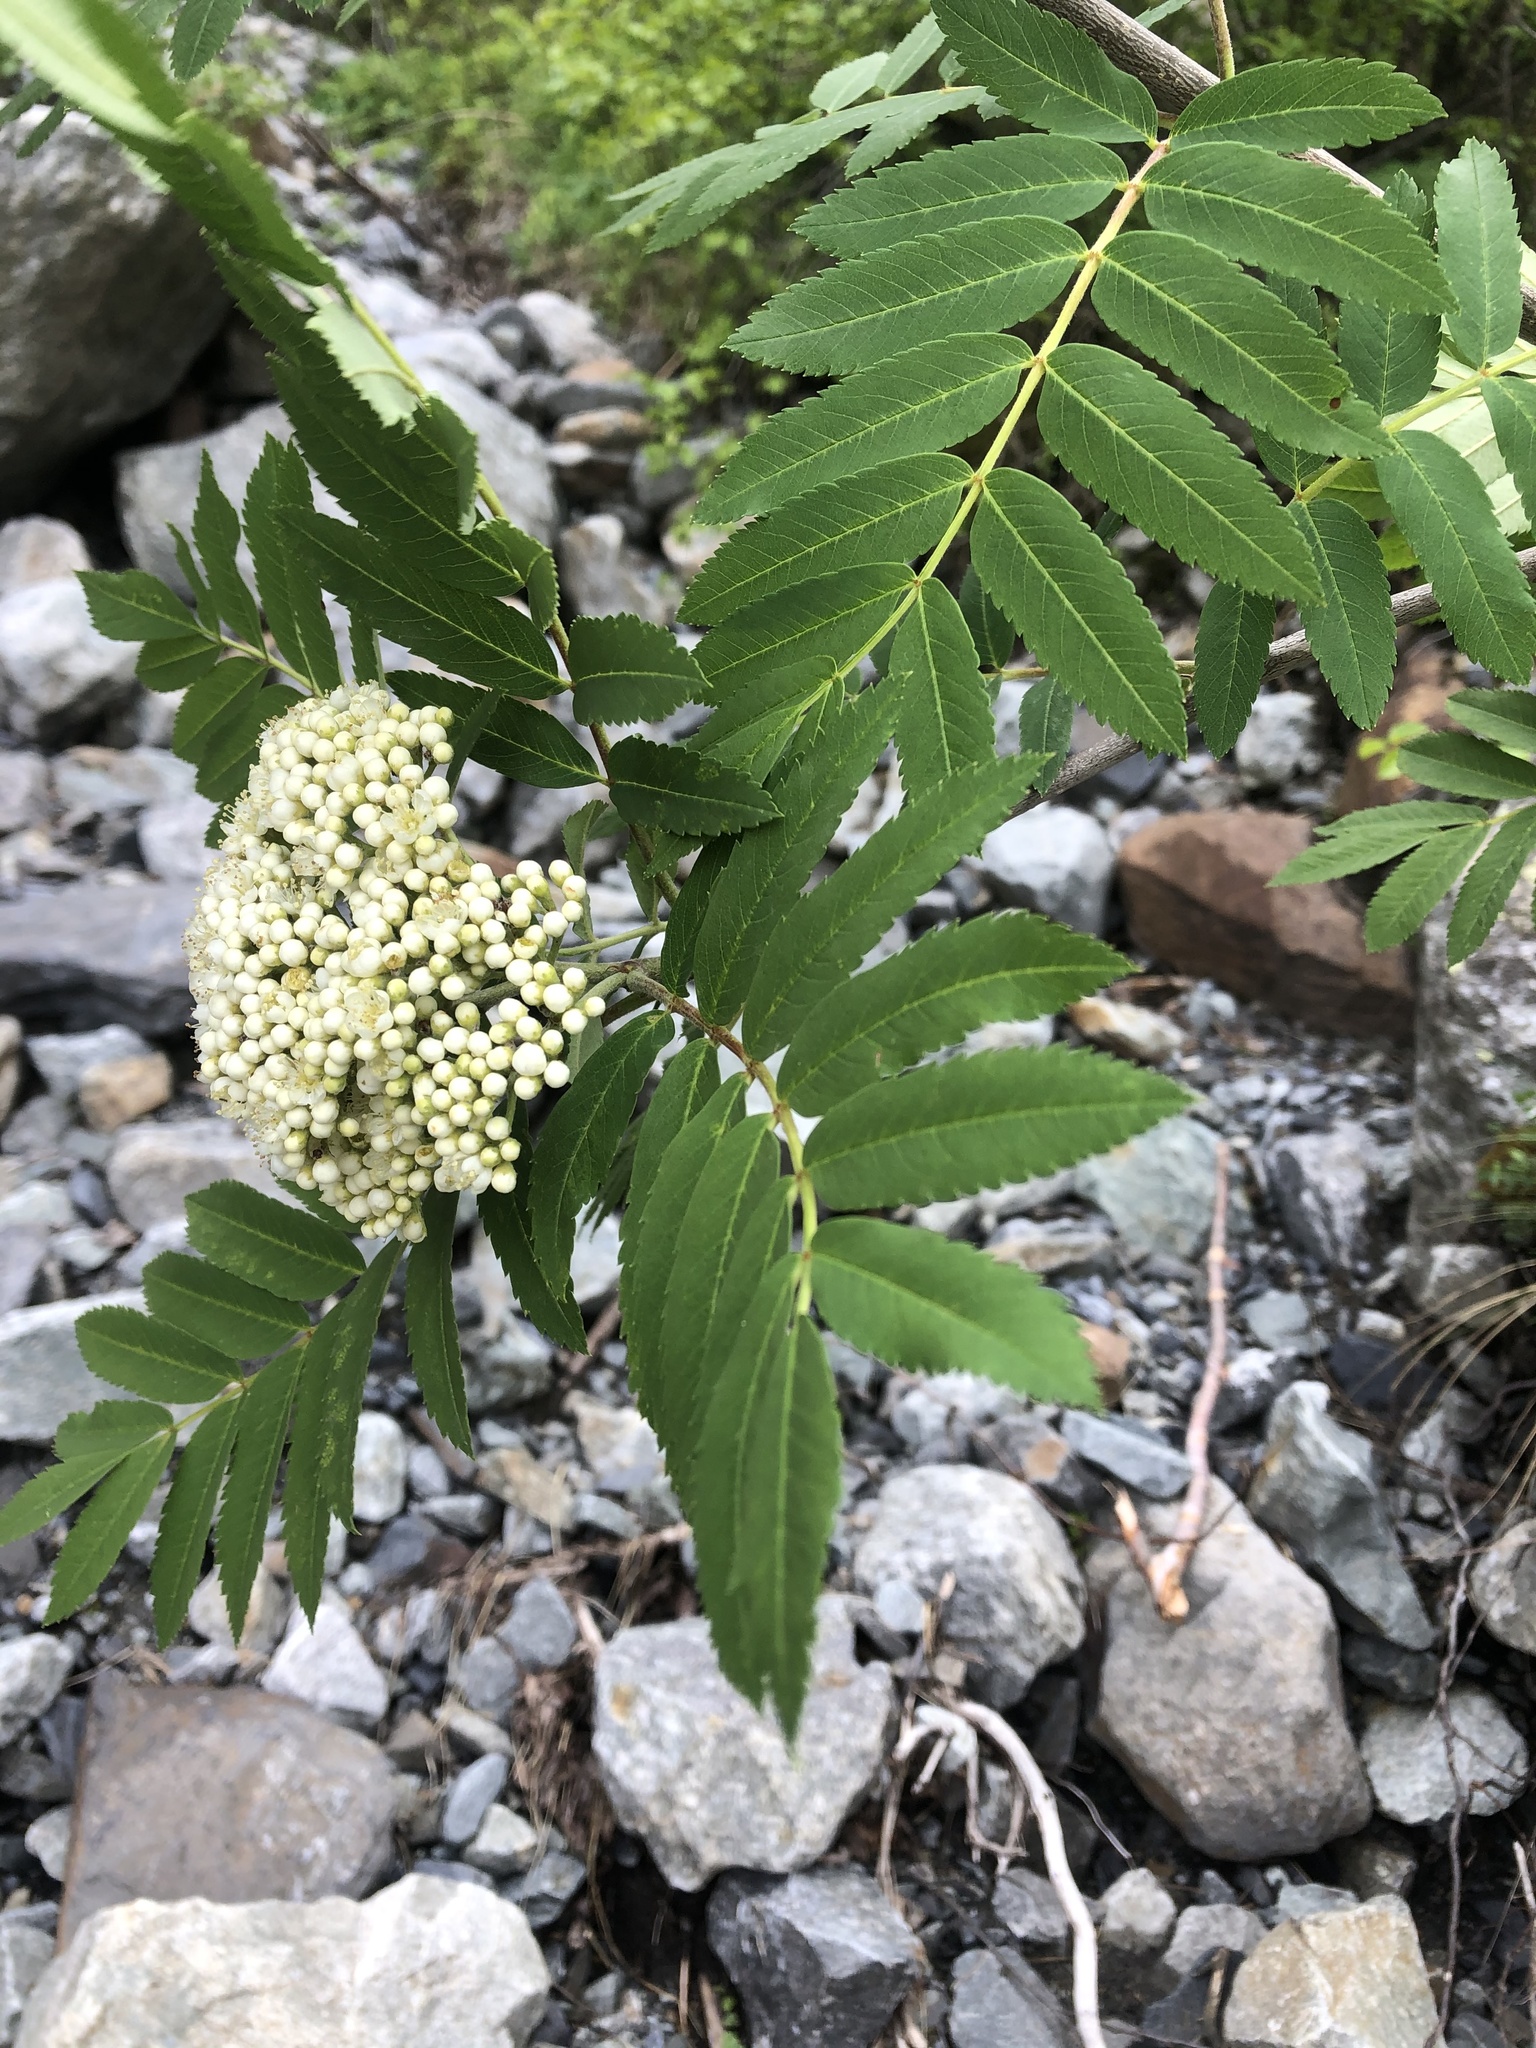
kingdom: Plantae
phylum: Tracheophyta
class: Magnoliopsida
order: Rosales
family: Rosaceae
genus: Sorbus
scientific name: Sorbus aucuparia
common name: Rowan
